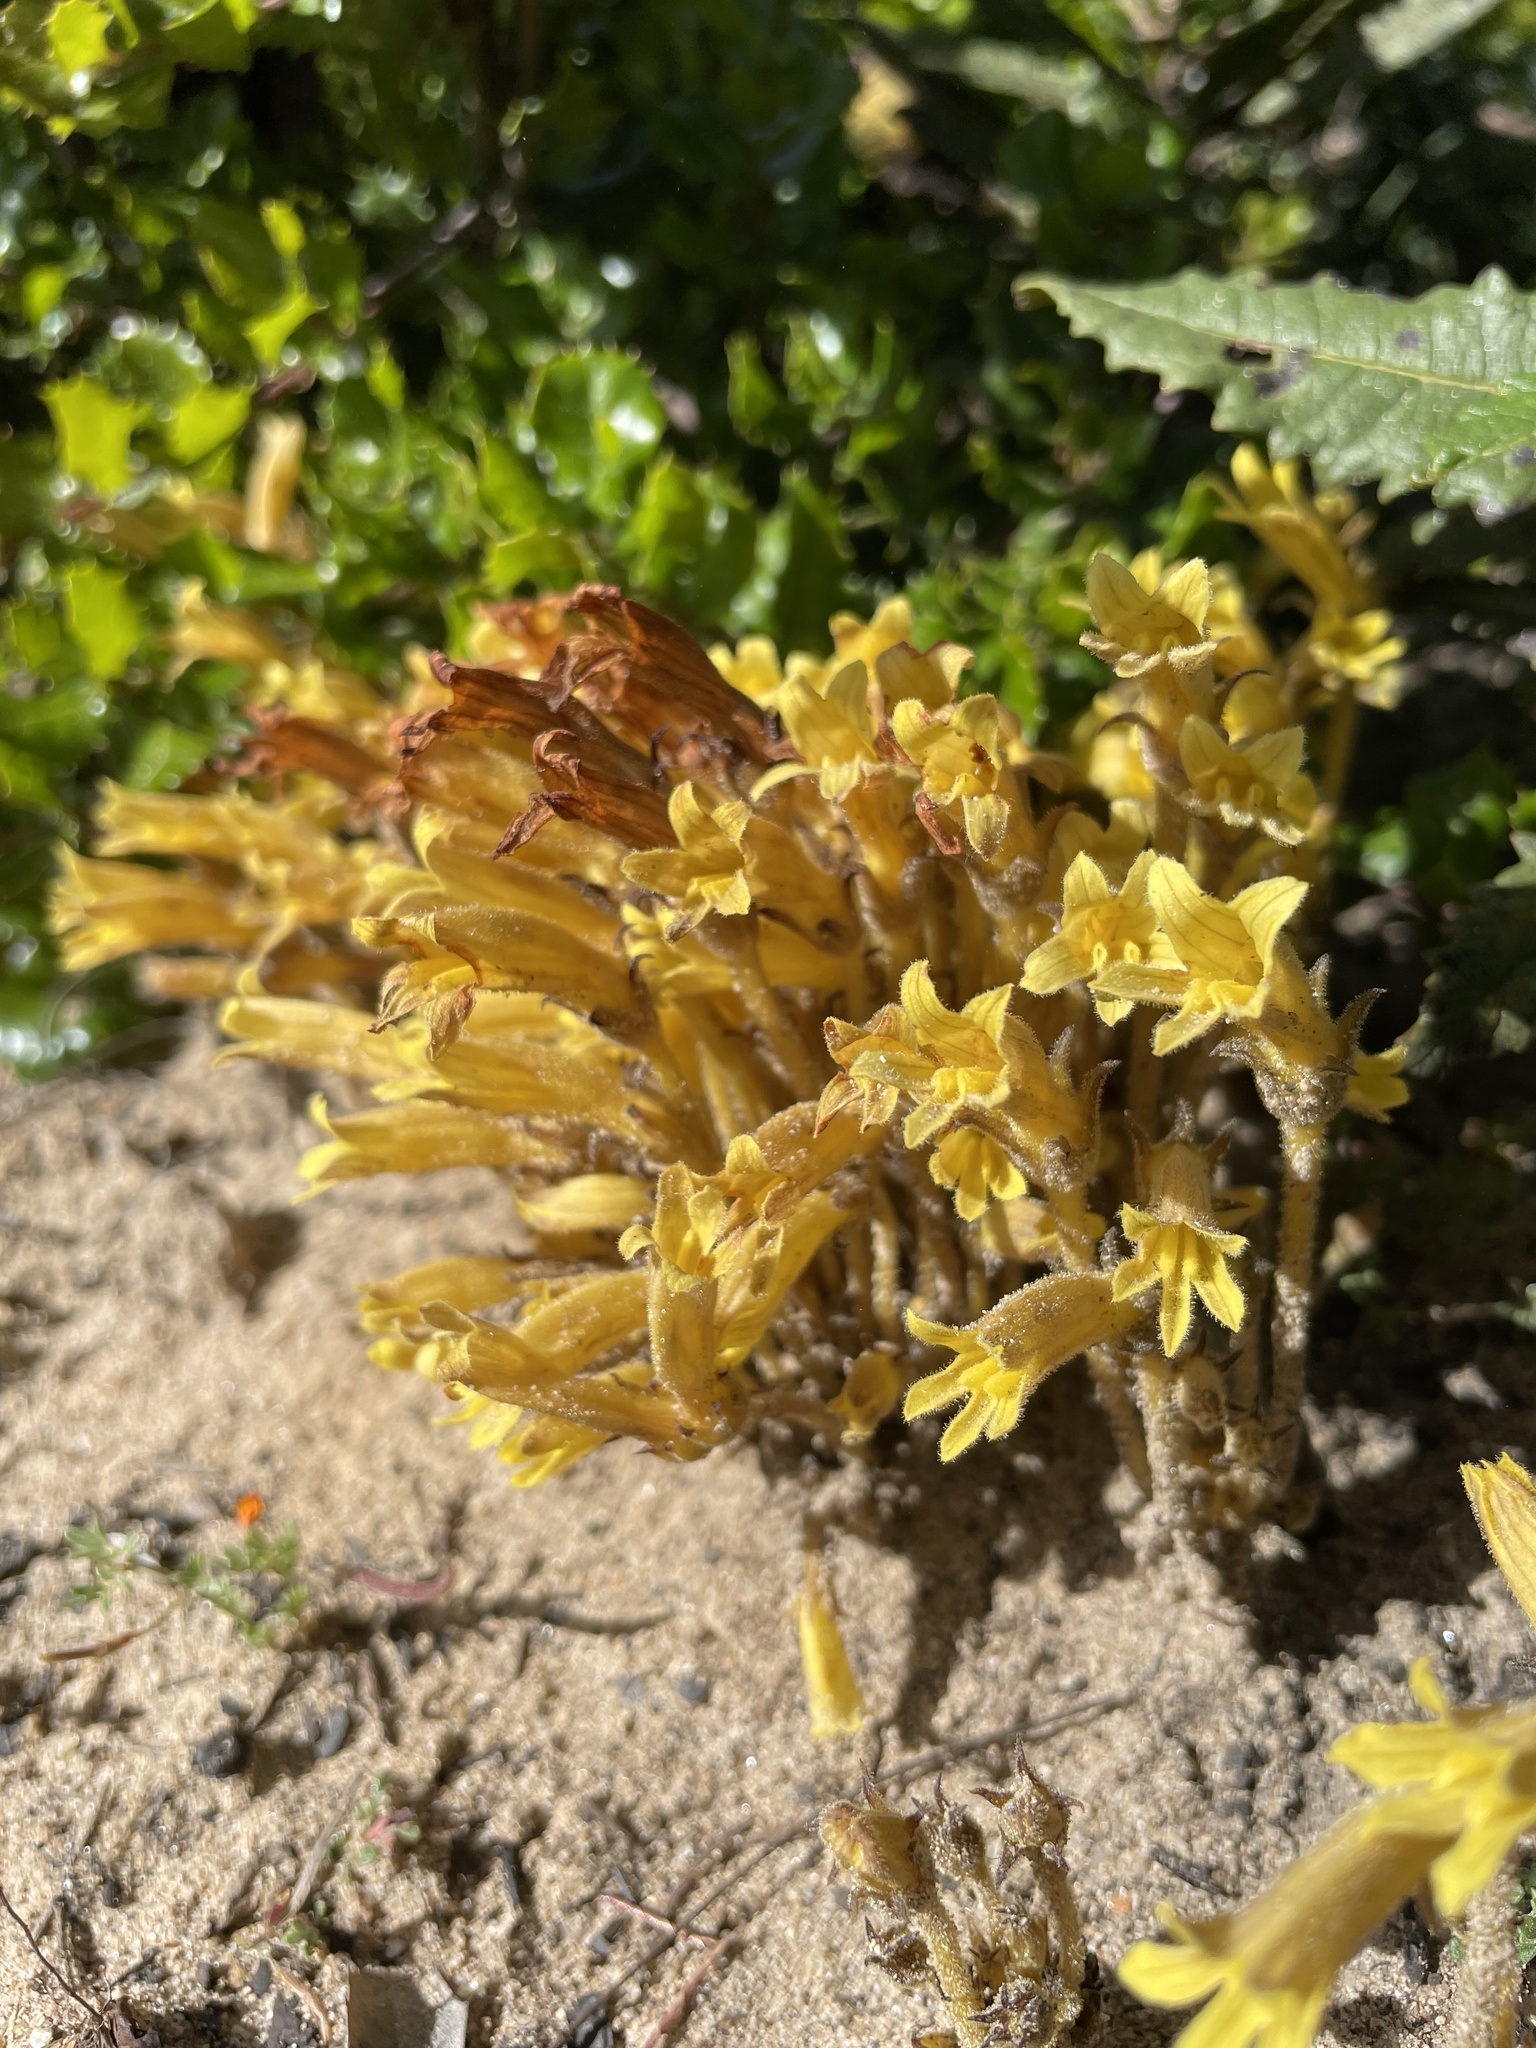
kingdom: Plantae
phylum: Tracheophyta
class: Magnoliopsida
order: Lamiales
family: Orobanchaceae
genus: Aphyllon
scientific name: Aphyllon franciscanum
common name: San francisco broomrape
